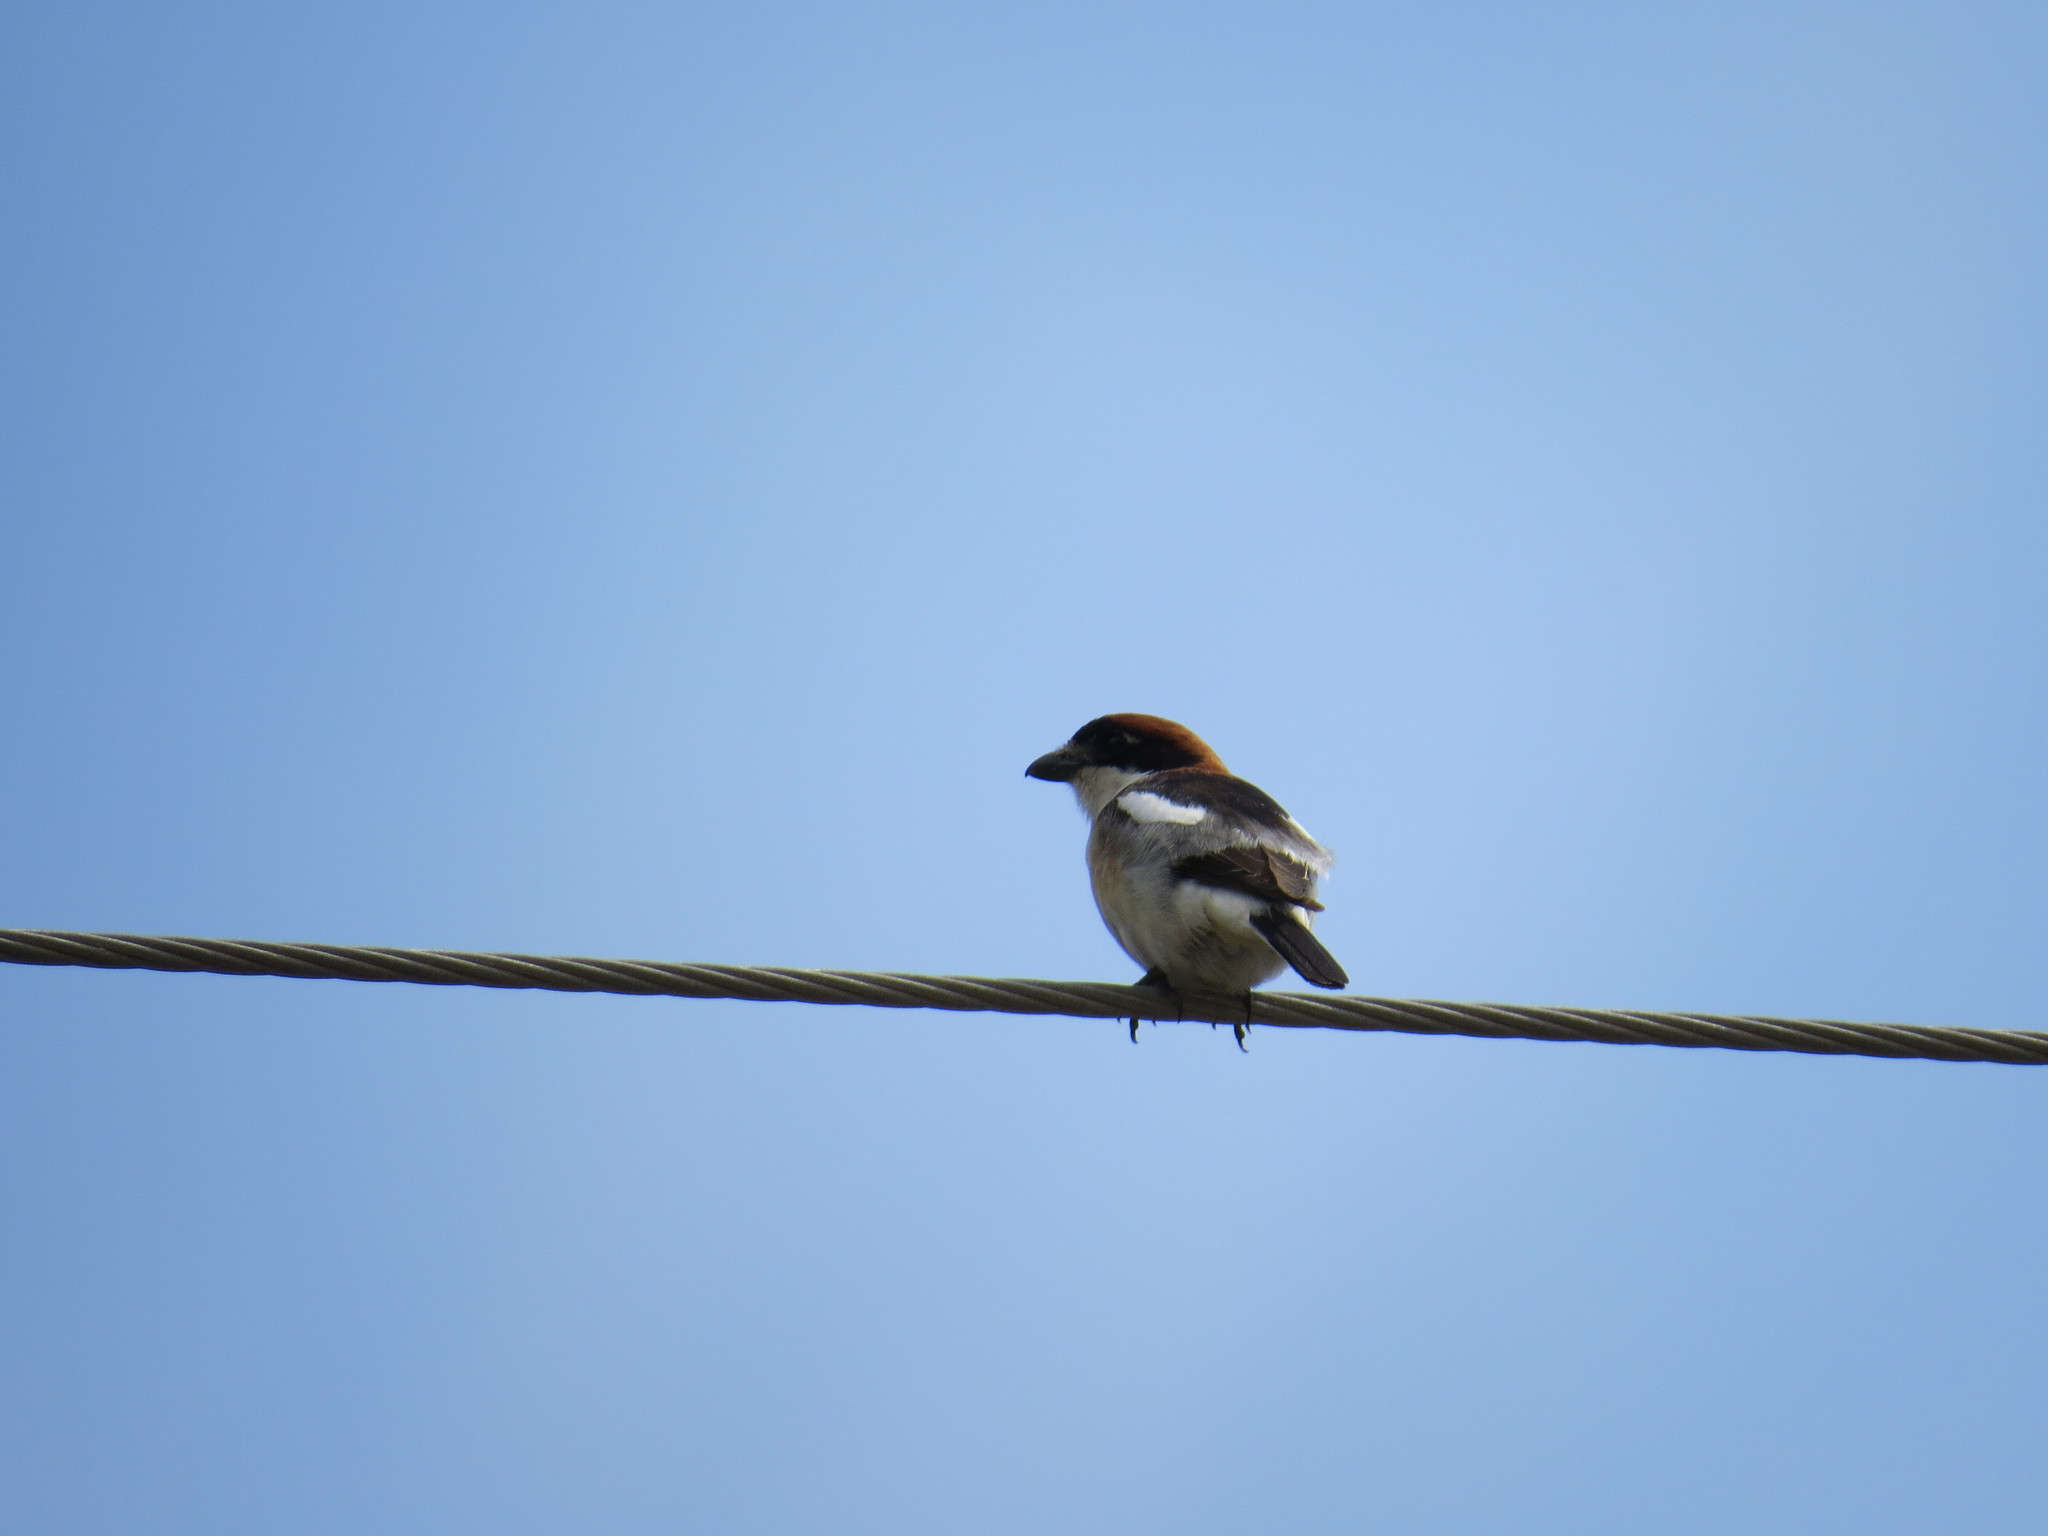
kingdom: Animalia
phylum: Chordata
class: Aves
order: Passeriformes
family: Laniidae
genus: Lanius
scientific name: Lanius senator
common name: Woodchat shrike
